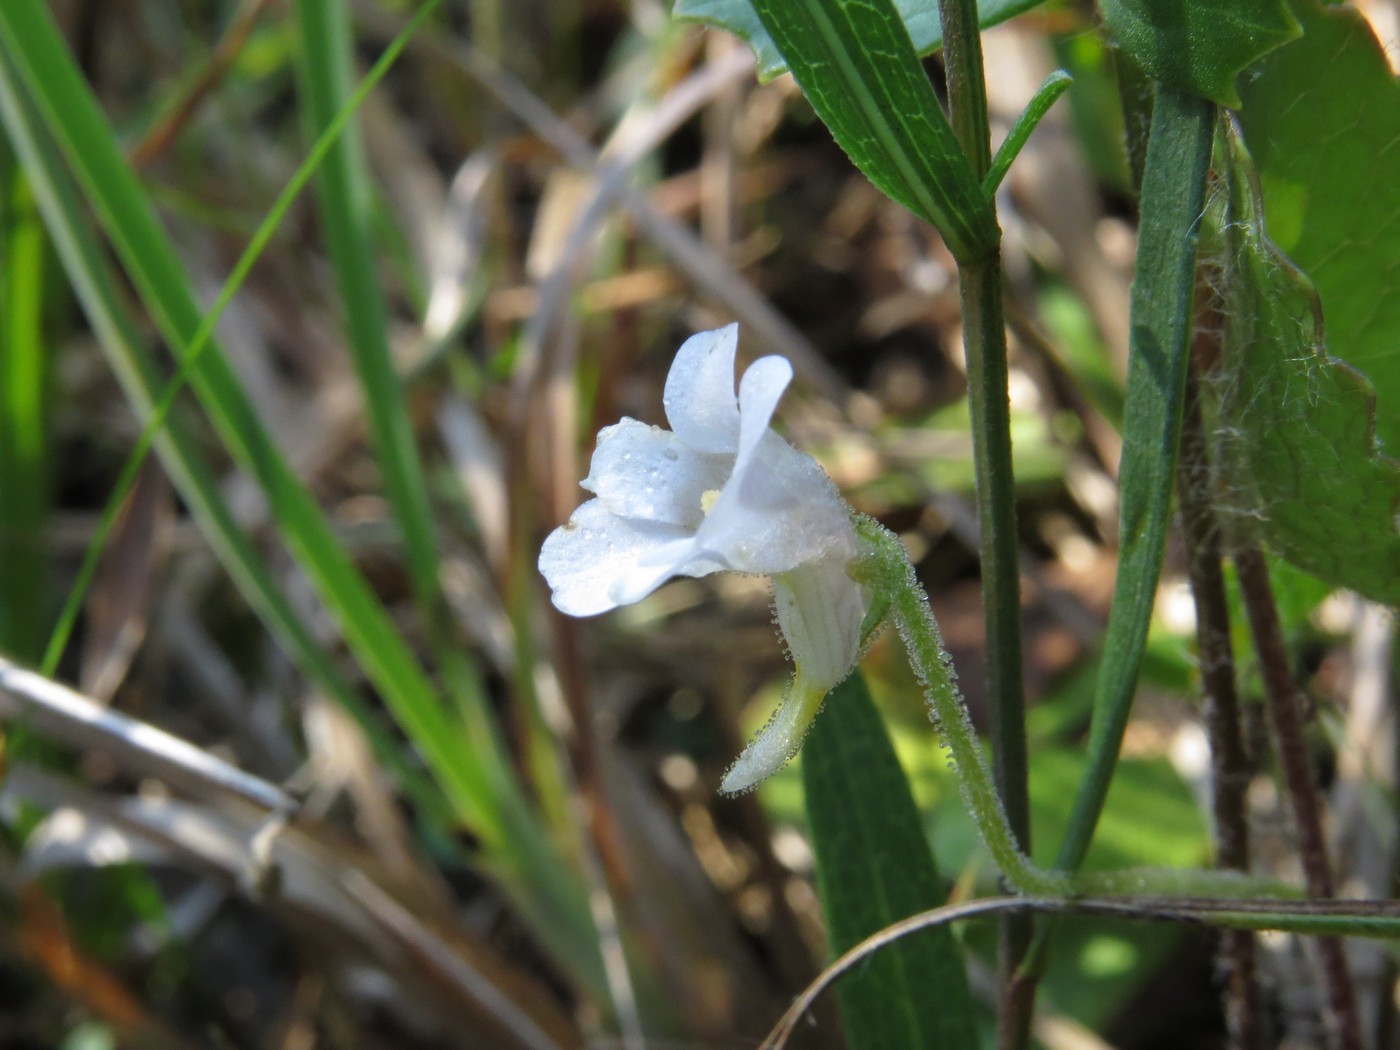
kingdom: Plantae
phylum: Tracheophyta
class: Magnoliopsida
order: Lamiales
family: Lentibulariaceae
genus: Pinguicula
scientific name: Pinguicula pumila
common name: Small butterwort
